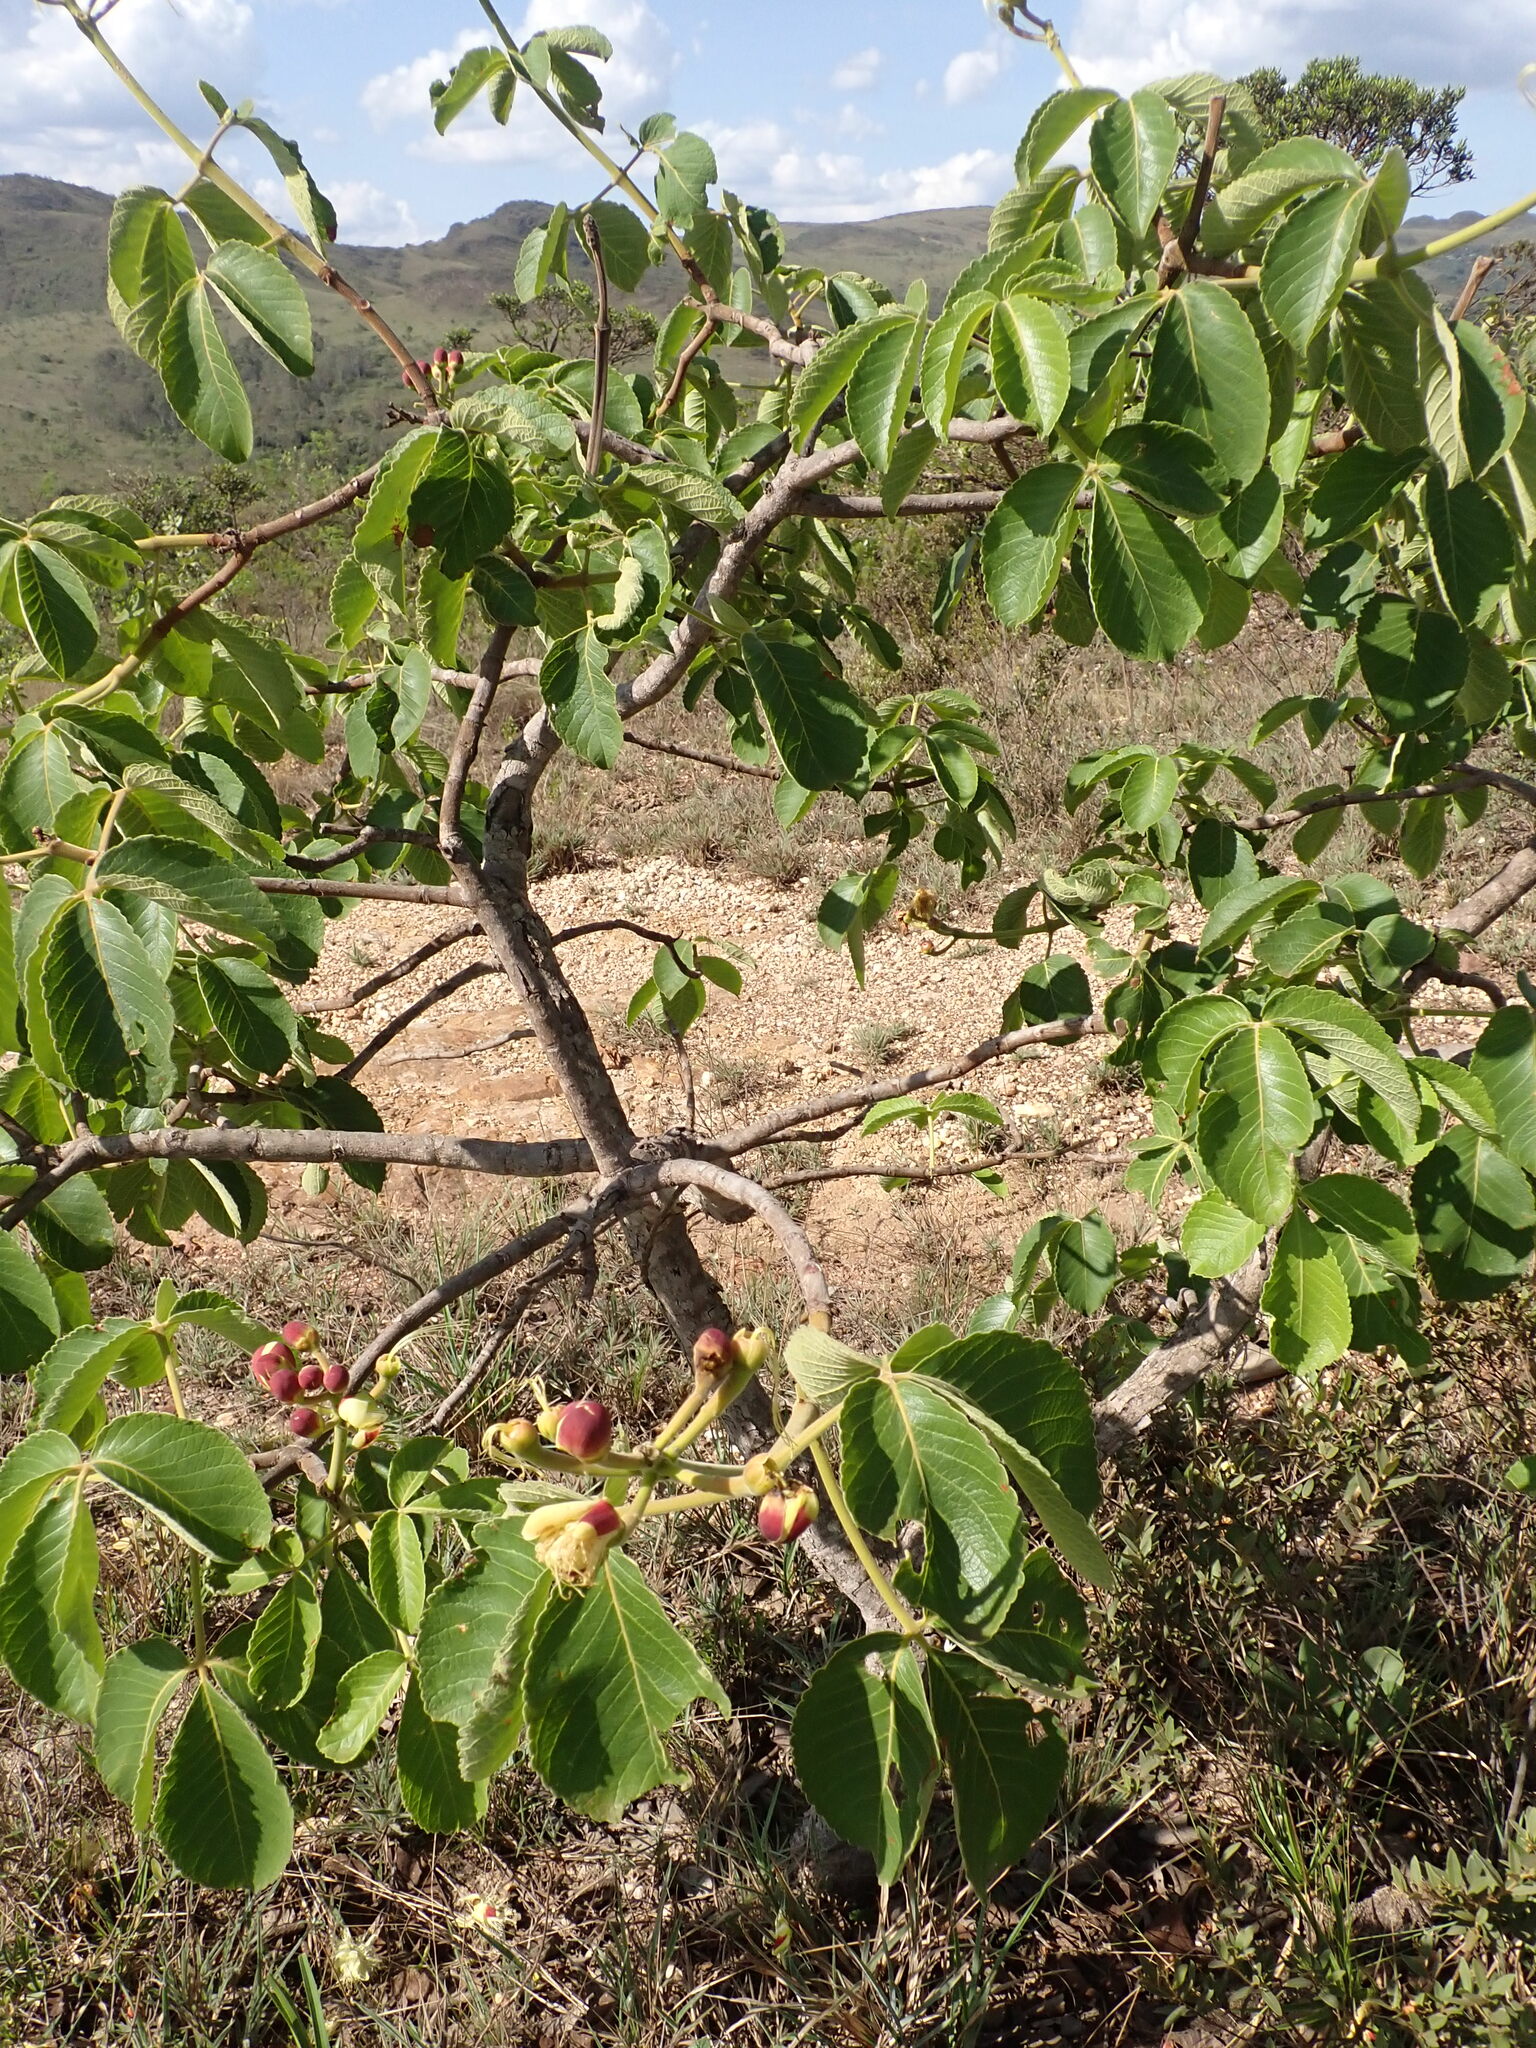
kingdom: Plantae
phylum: Tracheophyta
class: Magnoliopsida
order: Malpighiales
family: Caryocaraceae
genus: Caryocar
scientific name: Caryocar brasiliense
